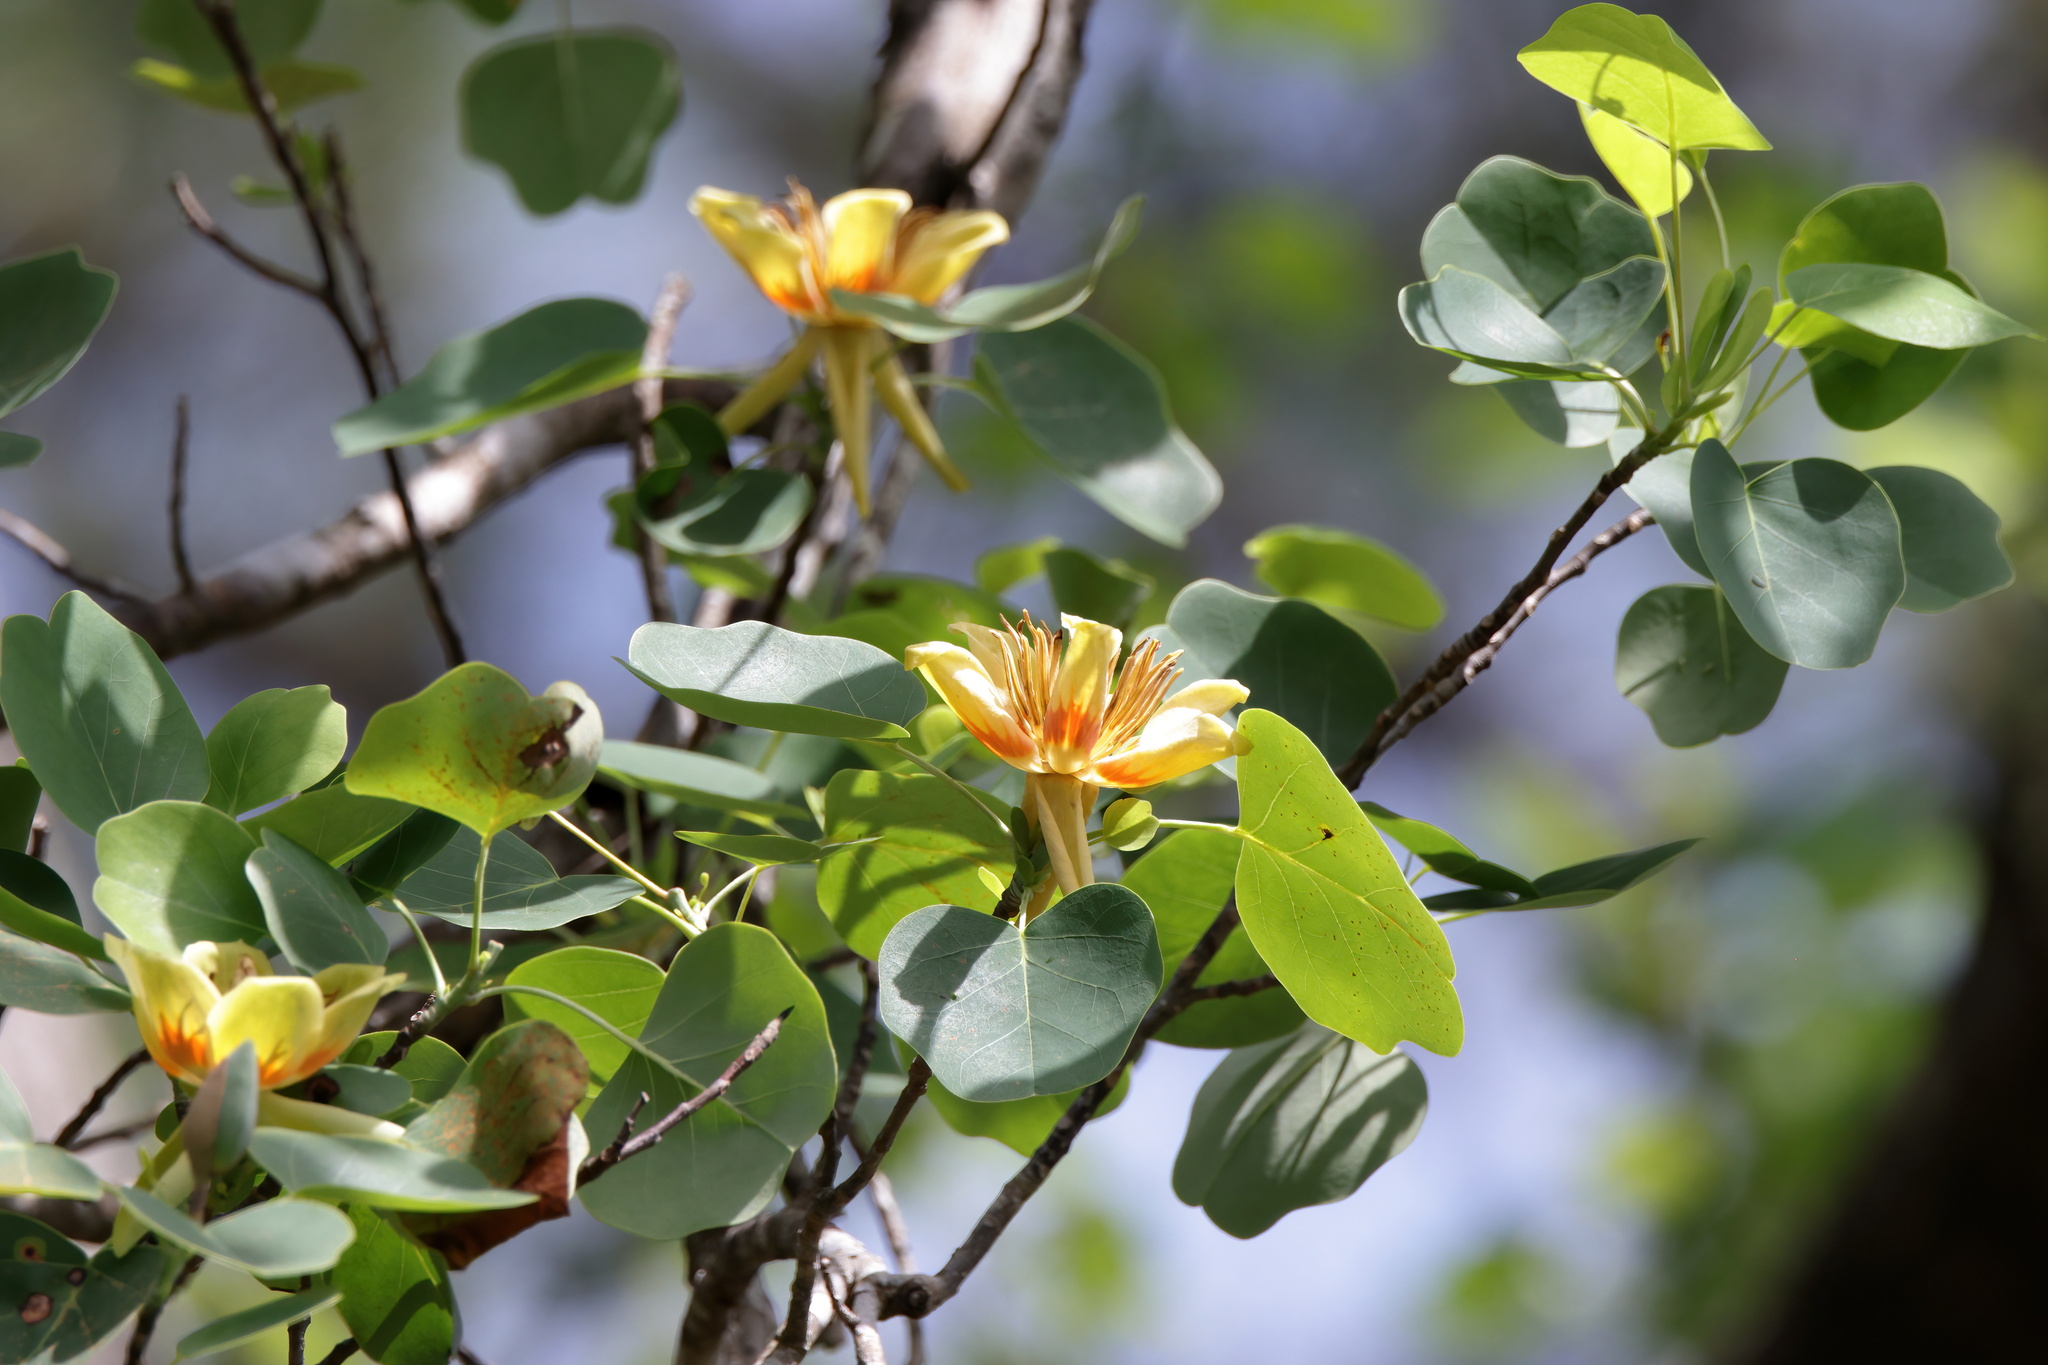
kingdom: Plantae
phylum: Tracheophyta
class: Magnoliopsida
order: Magnoliales
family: Magnoliaceae
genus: Liriodendron
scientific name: Liriodendron tulipifera
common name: Tulip tree
